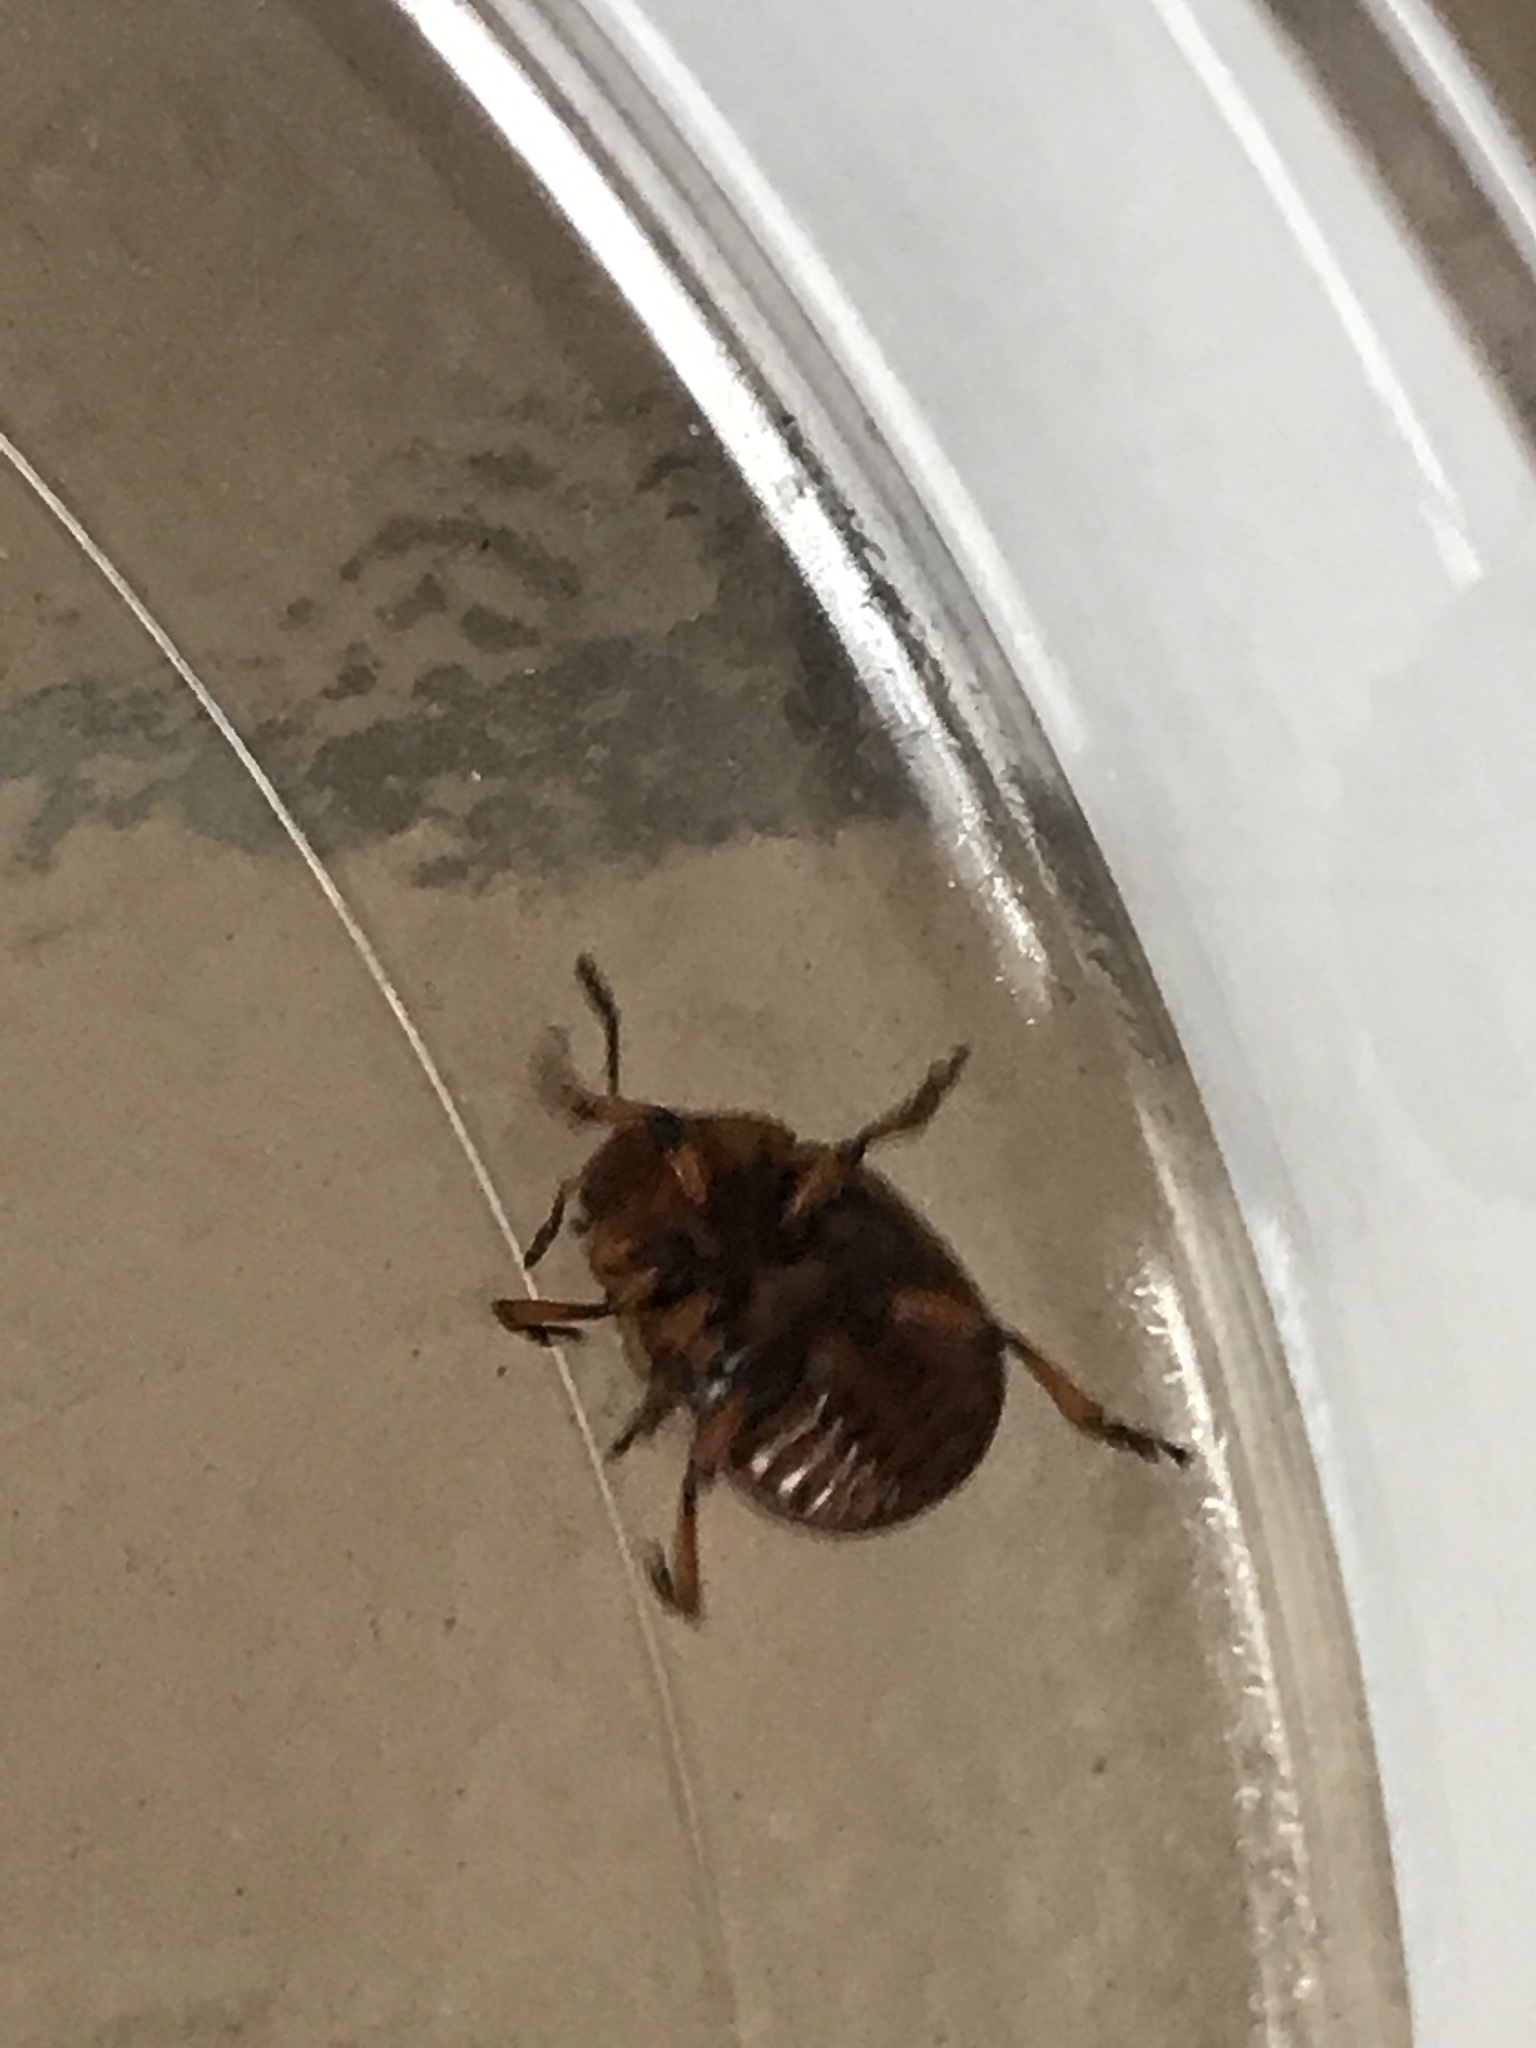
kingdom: Animalia
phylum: Arthropoda
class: Insecta
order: Coleoptera
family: Chrysomelidae
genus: Leptinotarsa
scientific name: Leptinotarsa decemlineata
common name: Colorado potato beetle
